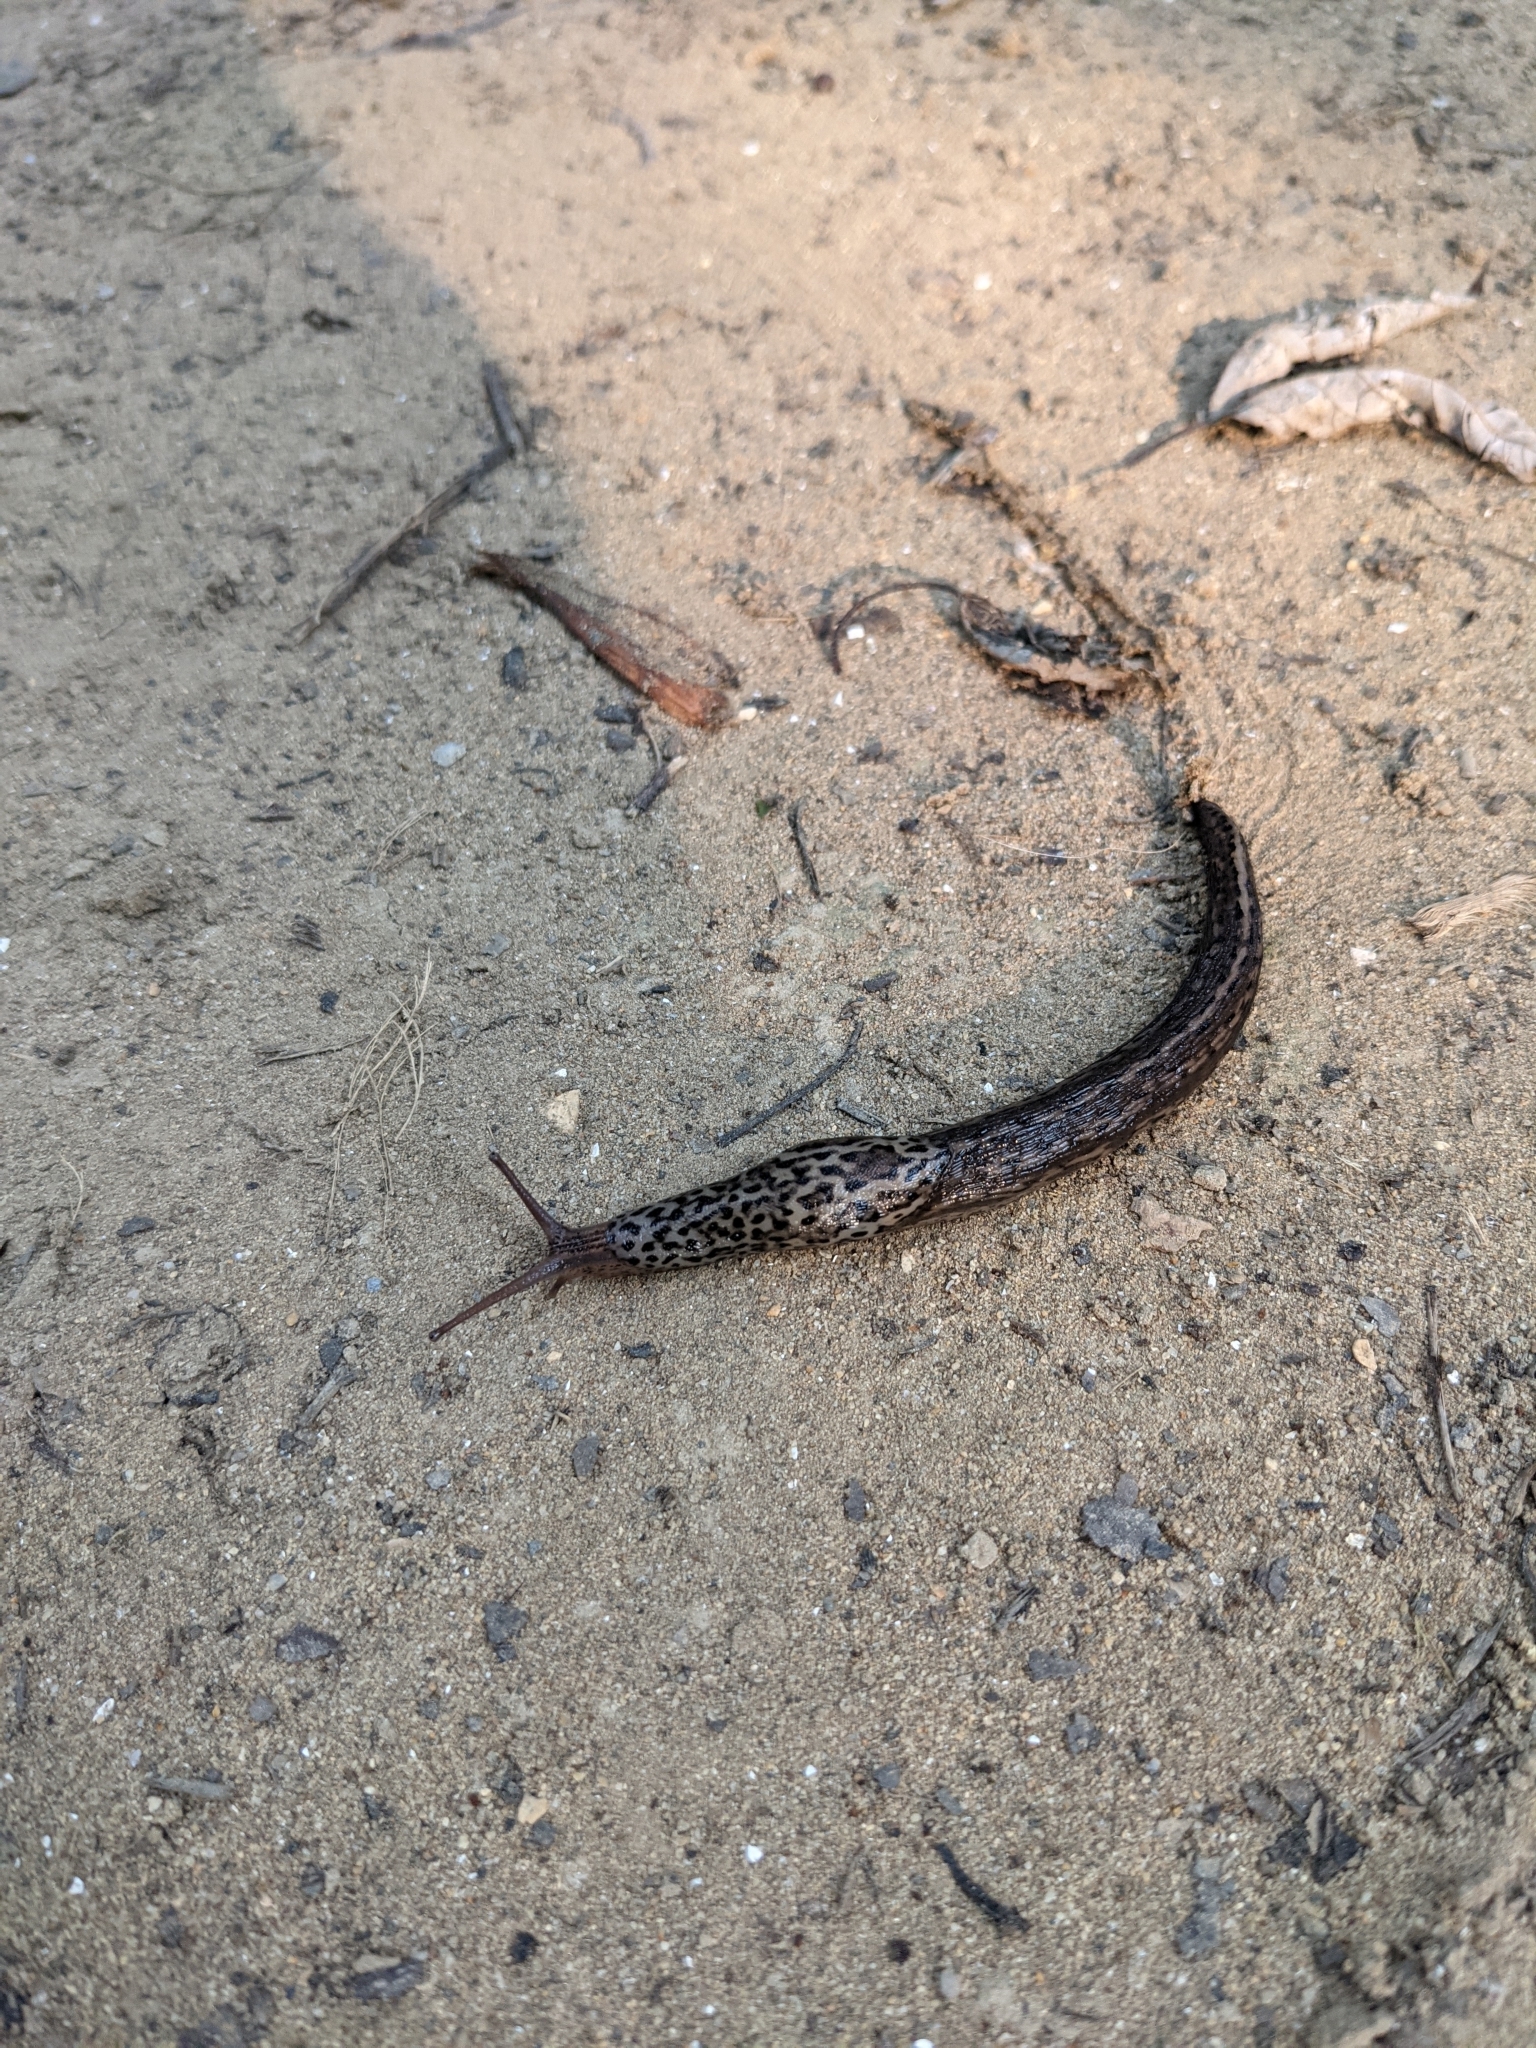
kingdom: Animalia
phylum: Mollusca
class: Gastropoda
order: Stylommatophora
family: Limacidae
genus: Limax
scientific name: Limax maximus
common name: Great grey slug
